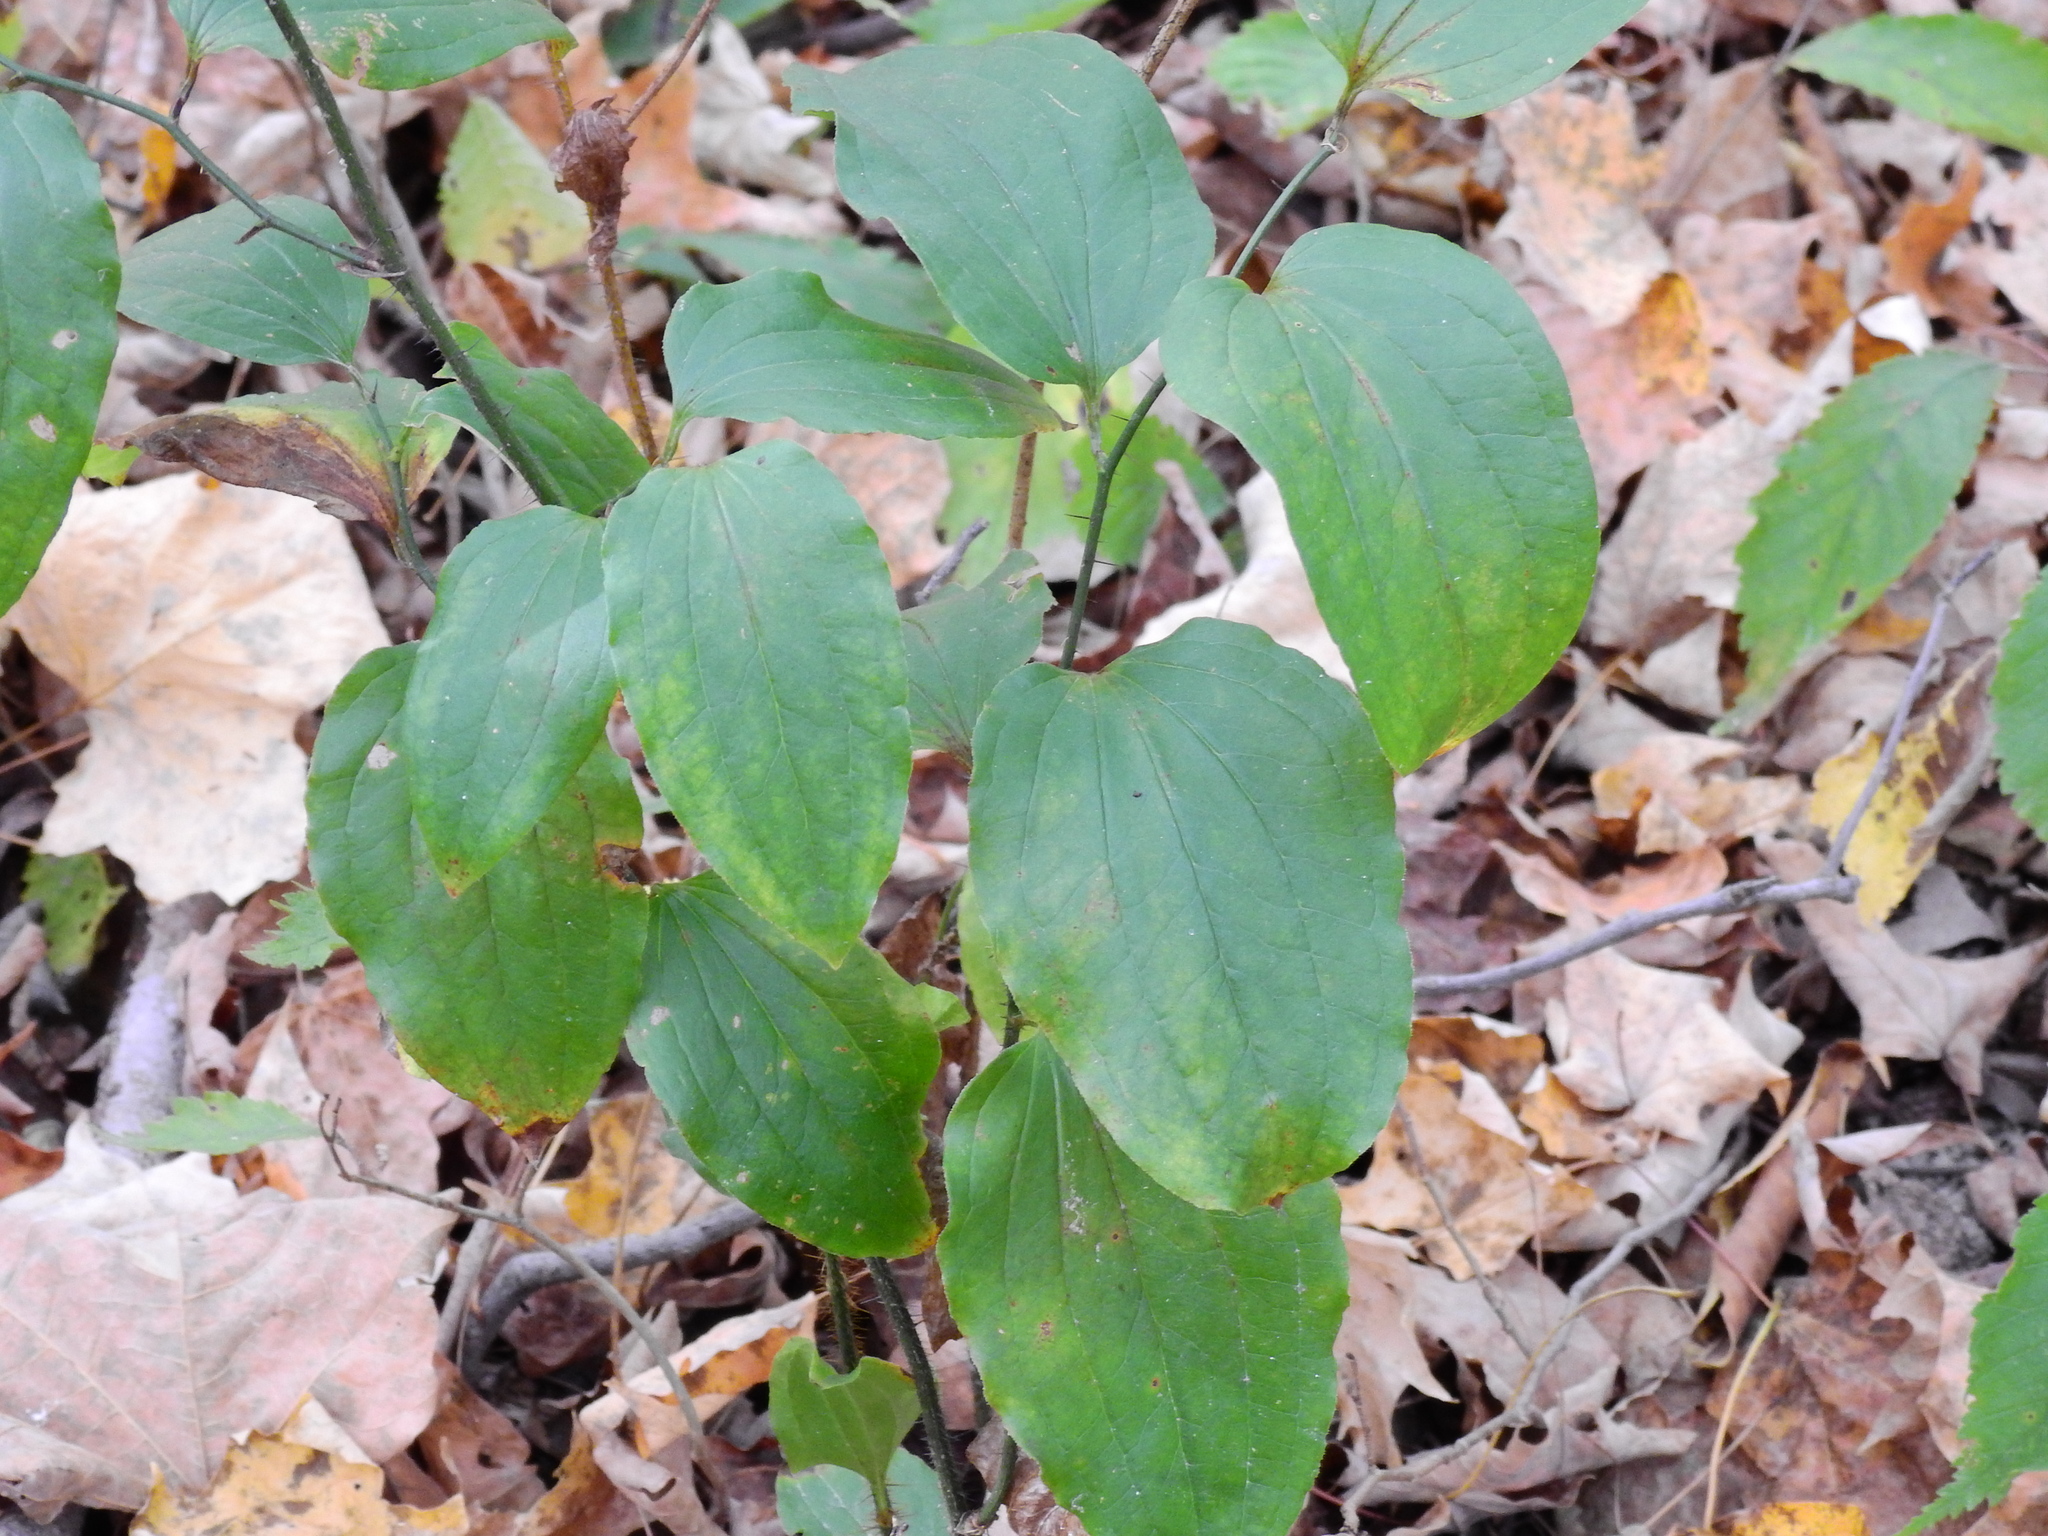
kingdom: Plantae
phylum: Tracheophyta
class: Liliopsida
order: Liliales
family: Smilacaceae
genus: Smilax
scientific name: Smilax tamnoides
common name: Hellfetter
